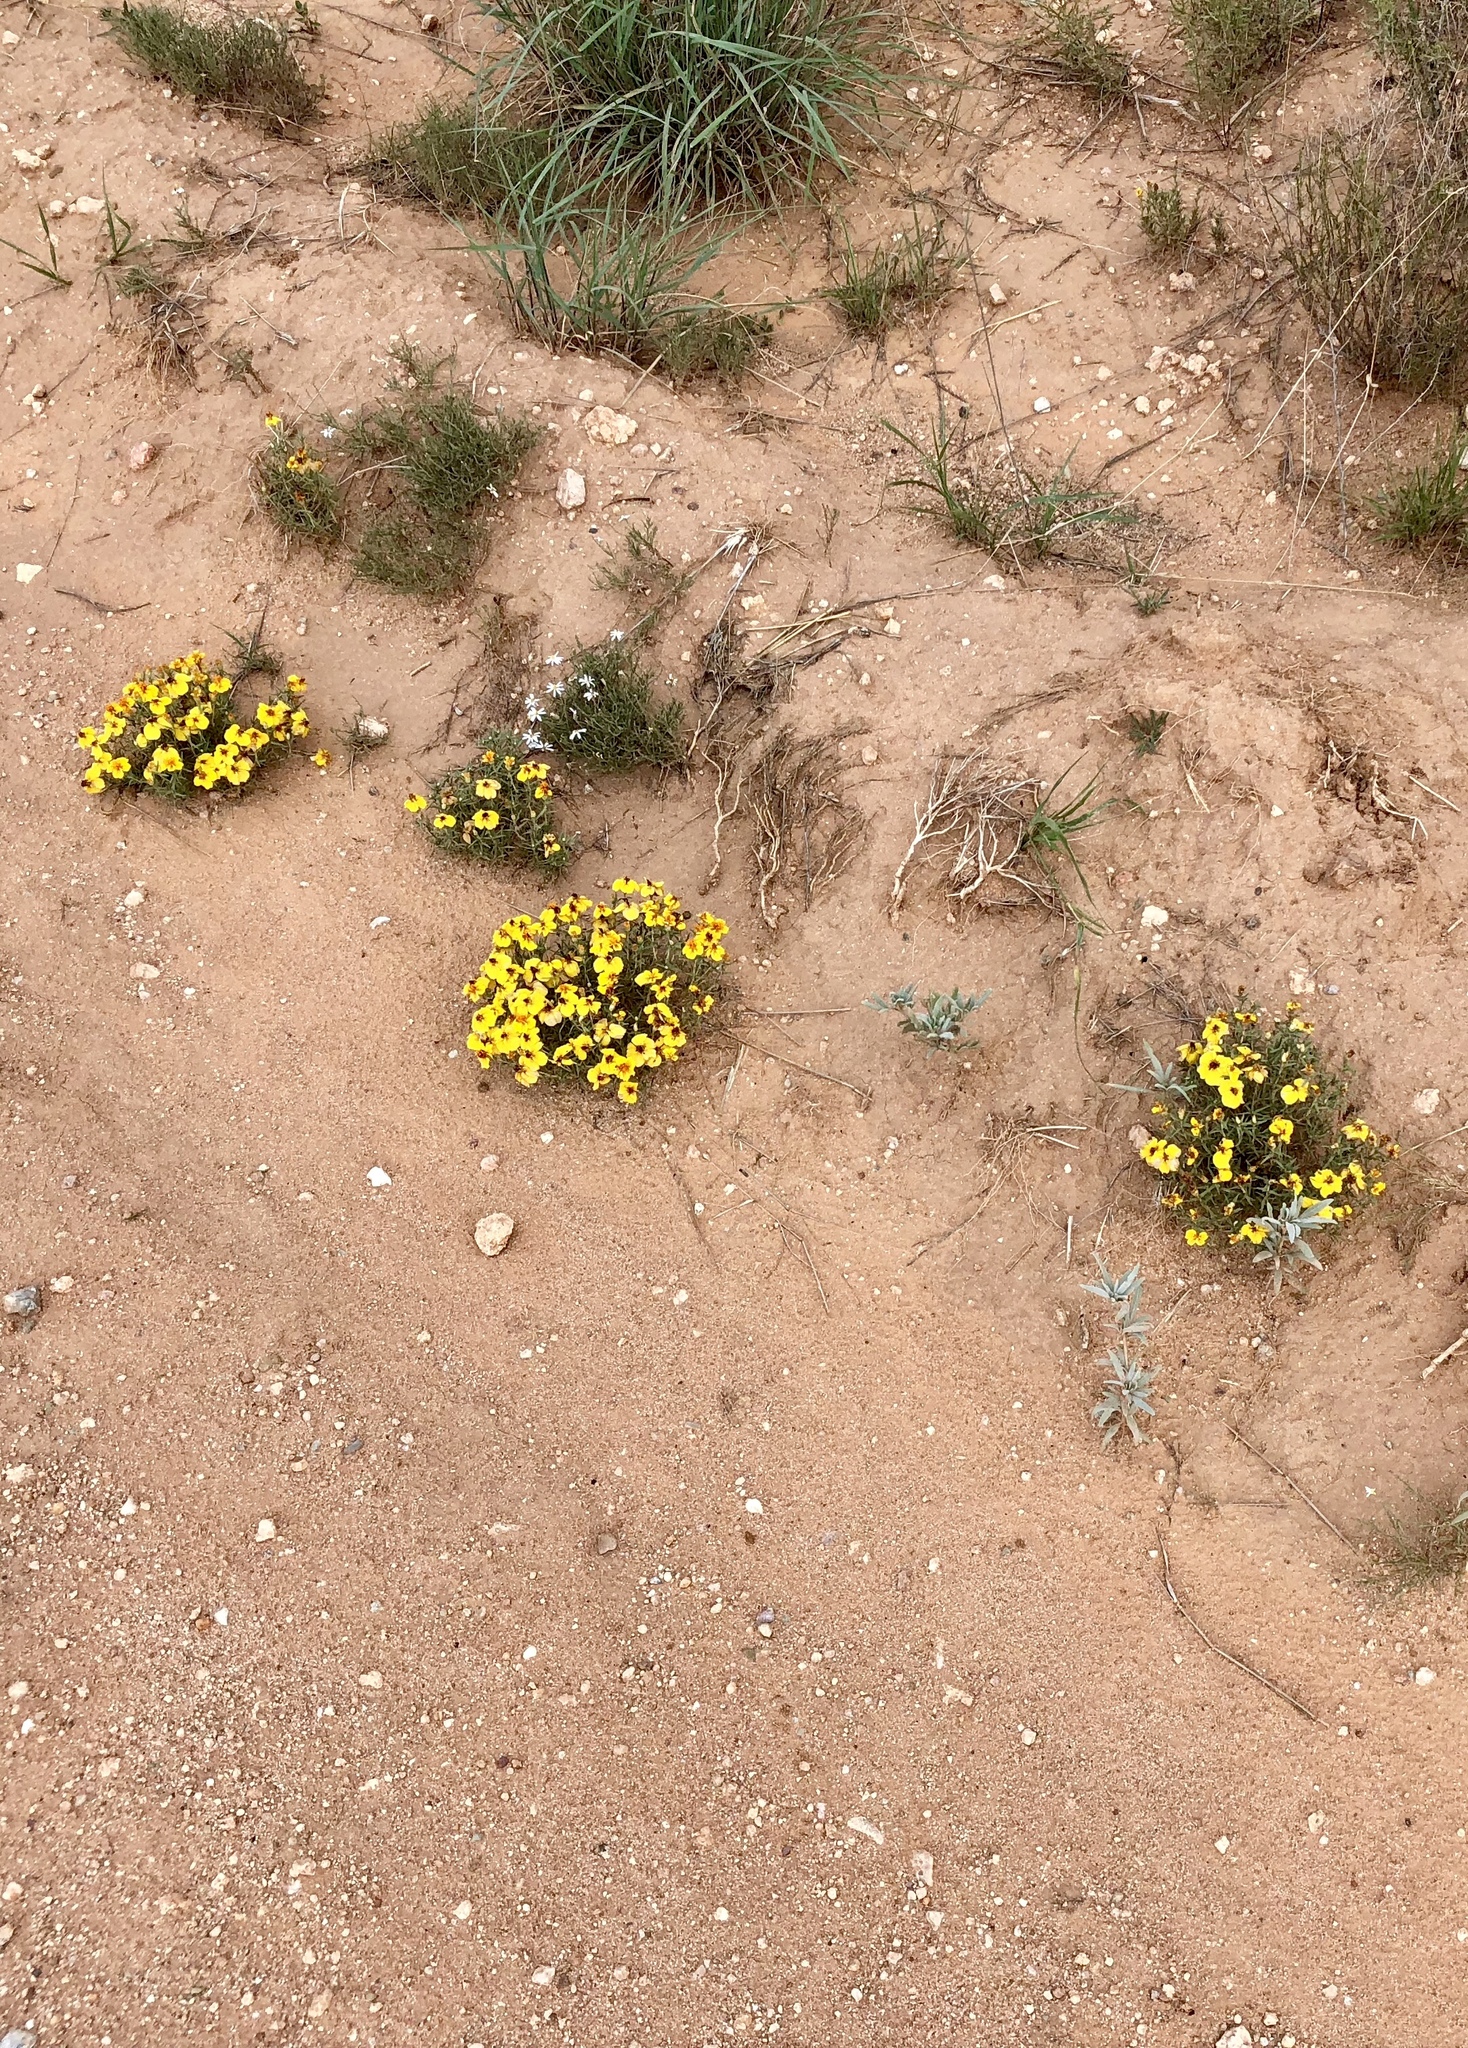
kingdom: Plantae
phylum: Tracheophyta
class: Magnoliopsida
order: Asterales
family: Asteraceae
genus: Zinnia
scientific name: Zinnia grandiflora
